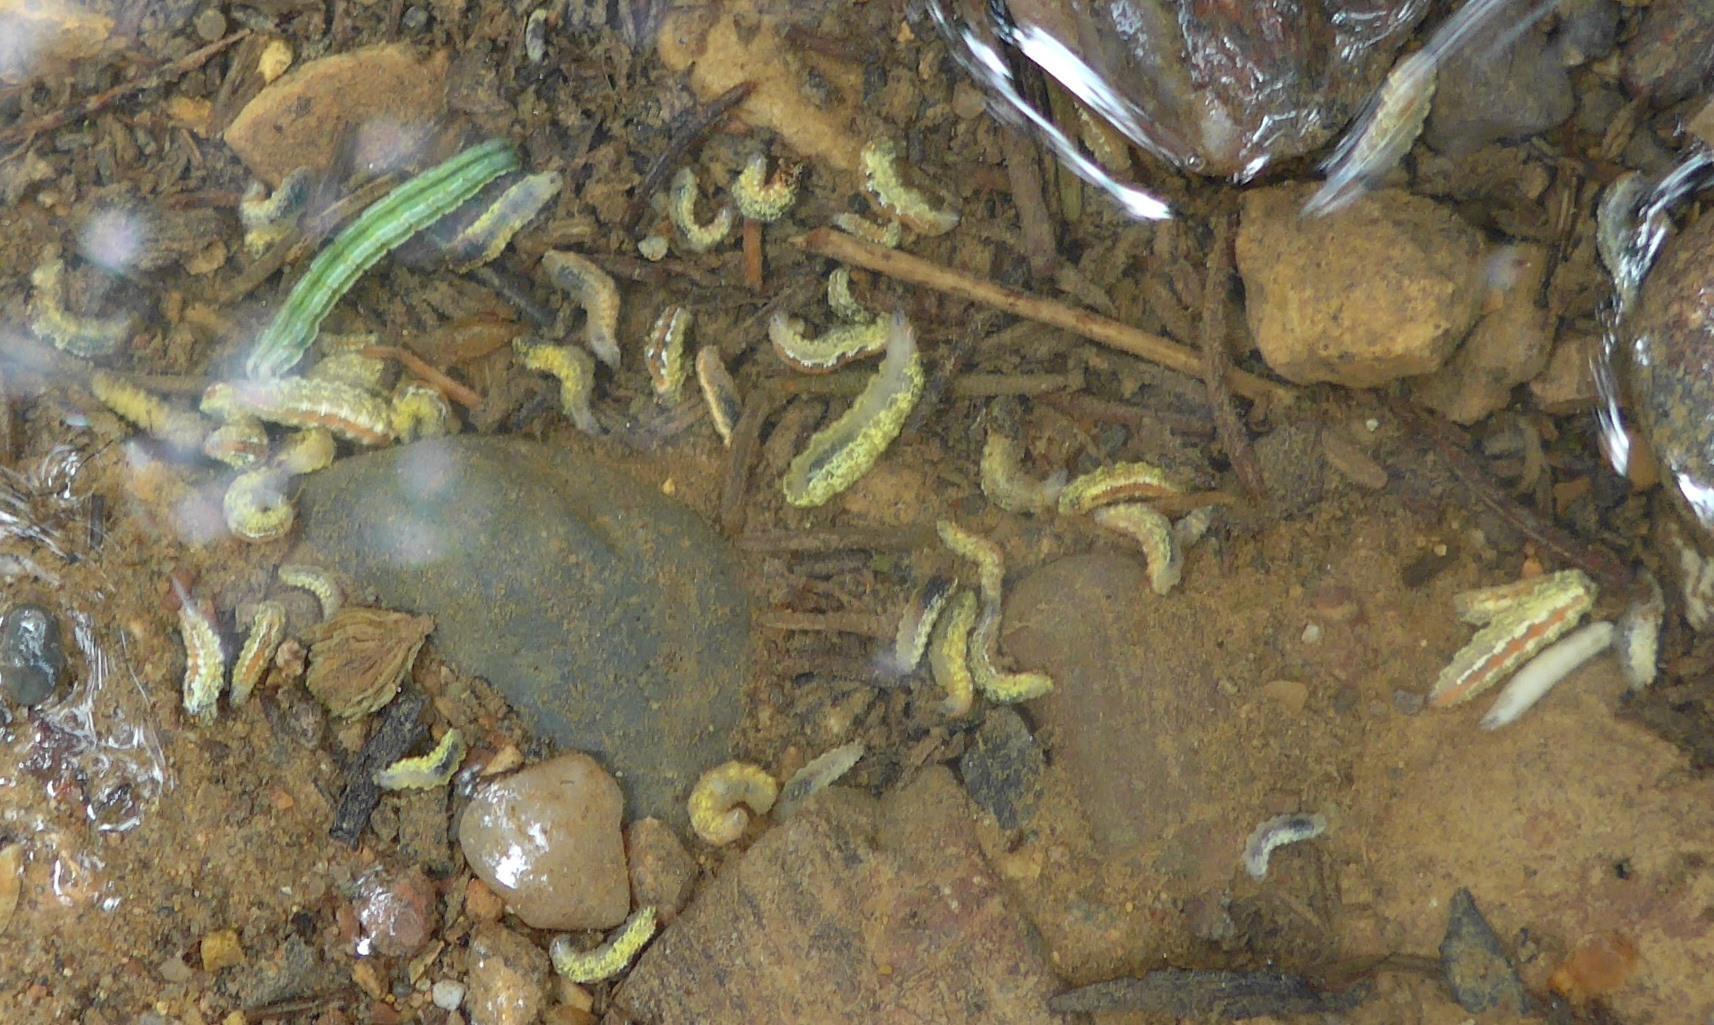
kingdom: Animalia
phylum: Arthropoda
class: Insecta
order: Diptera
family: Syrphidae
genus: Syrphus
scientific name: Syrphus
